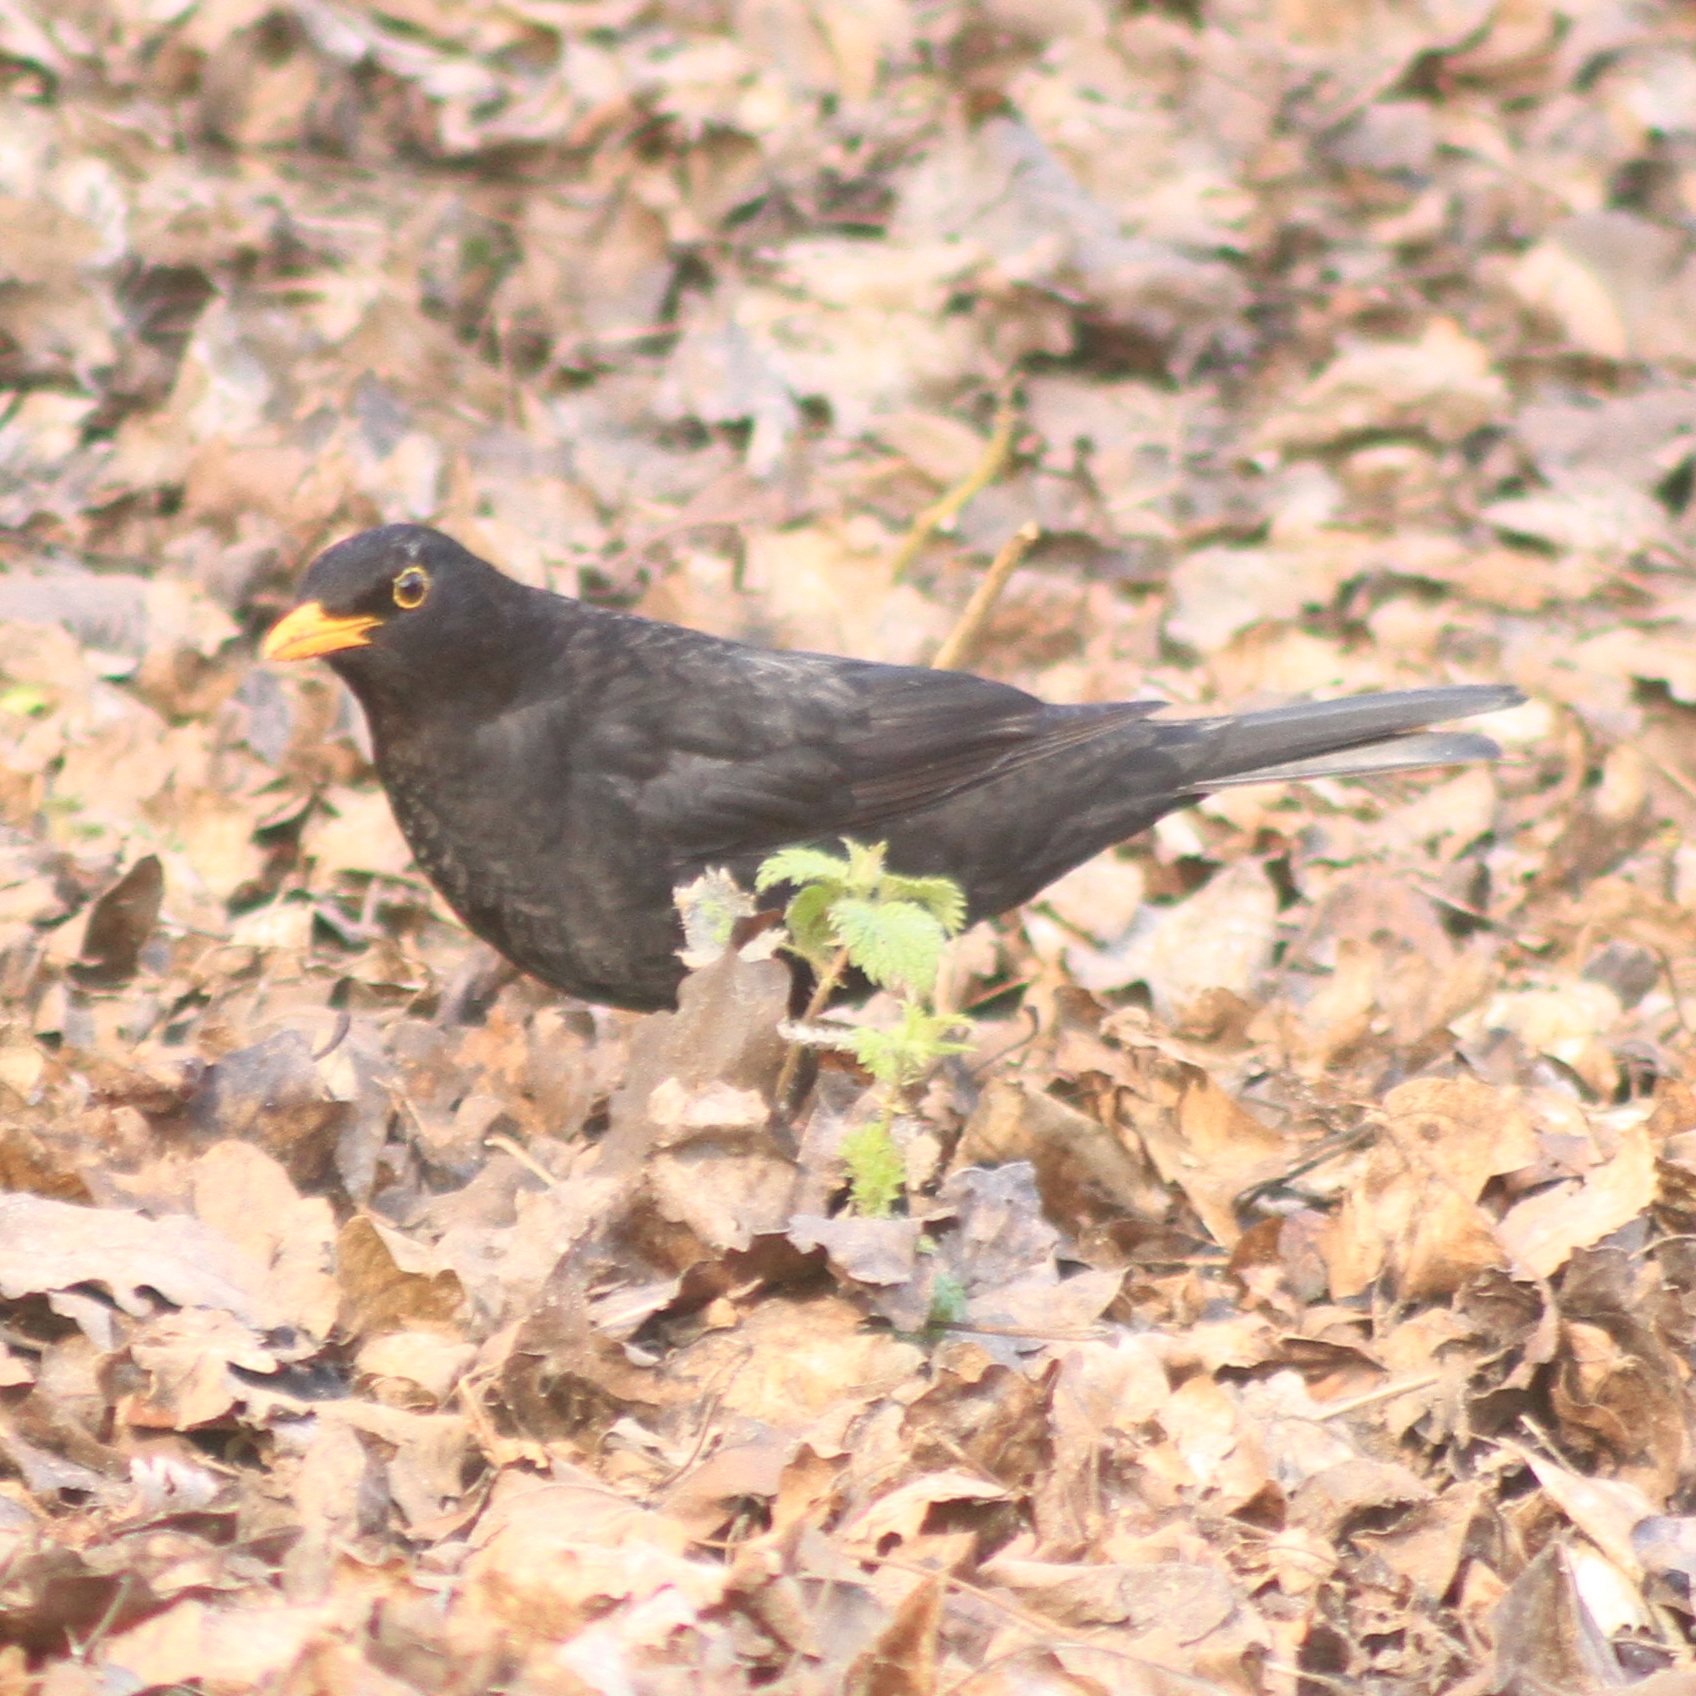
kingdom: Animalia
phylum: Chordata
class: Aves
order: Passeriformes
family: Turdidae
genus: Turdus
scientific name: Turdus merula
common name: Common blackbird
